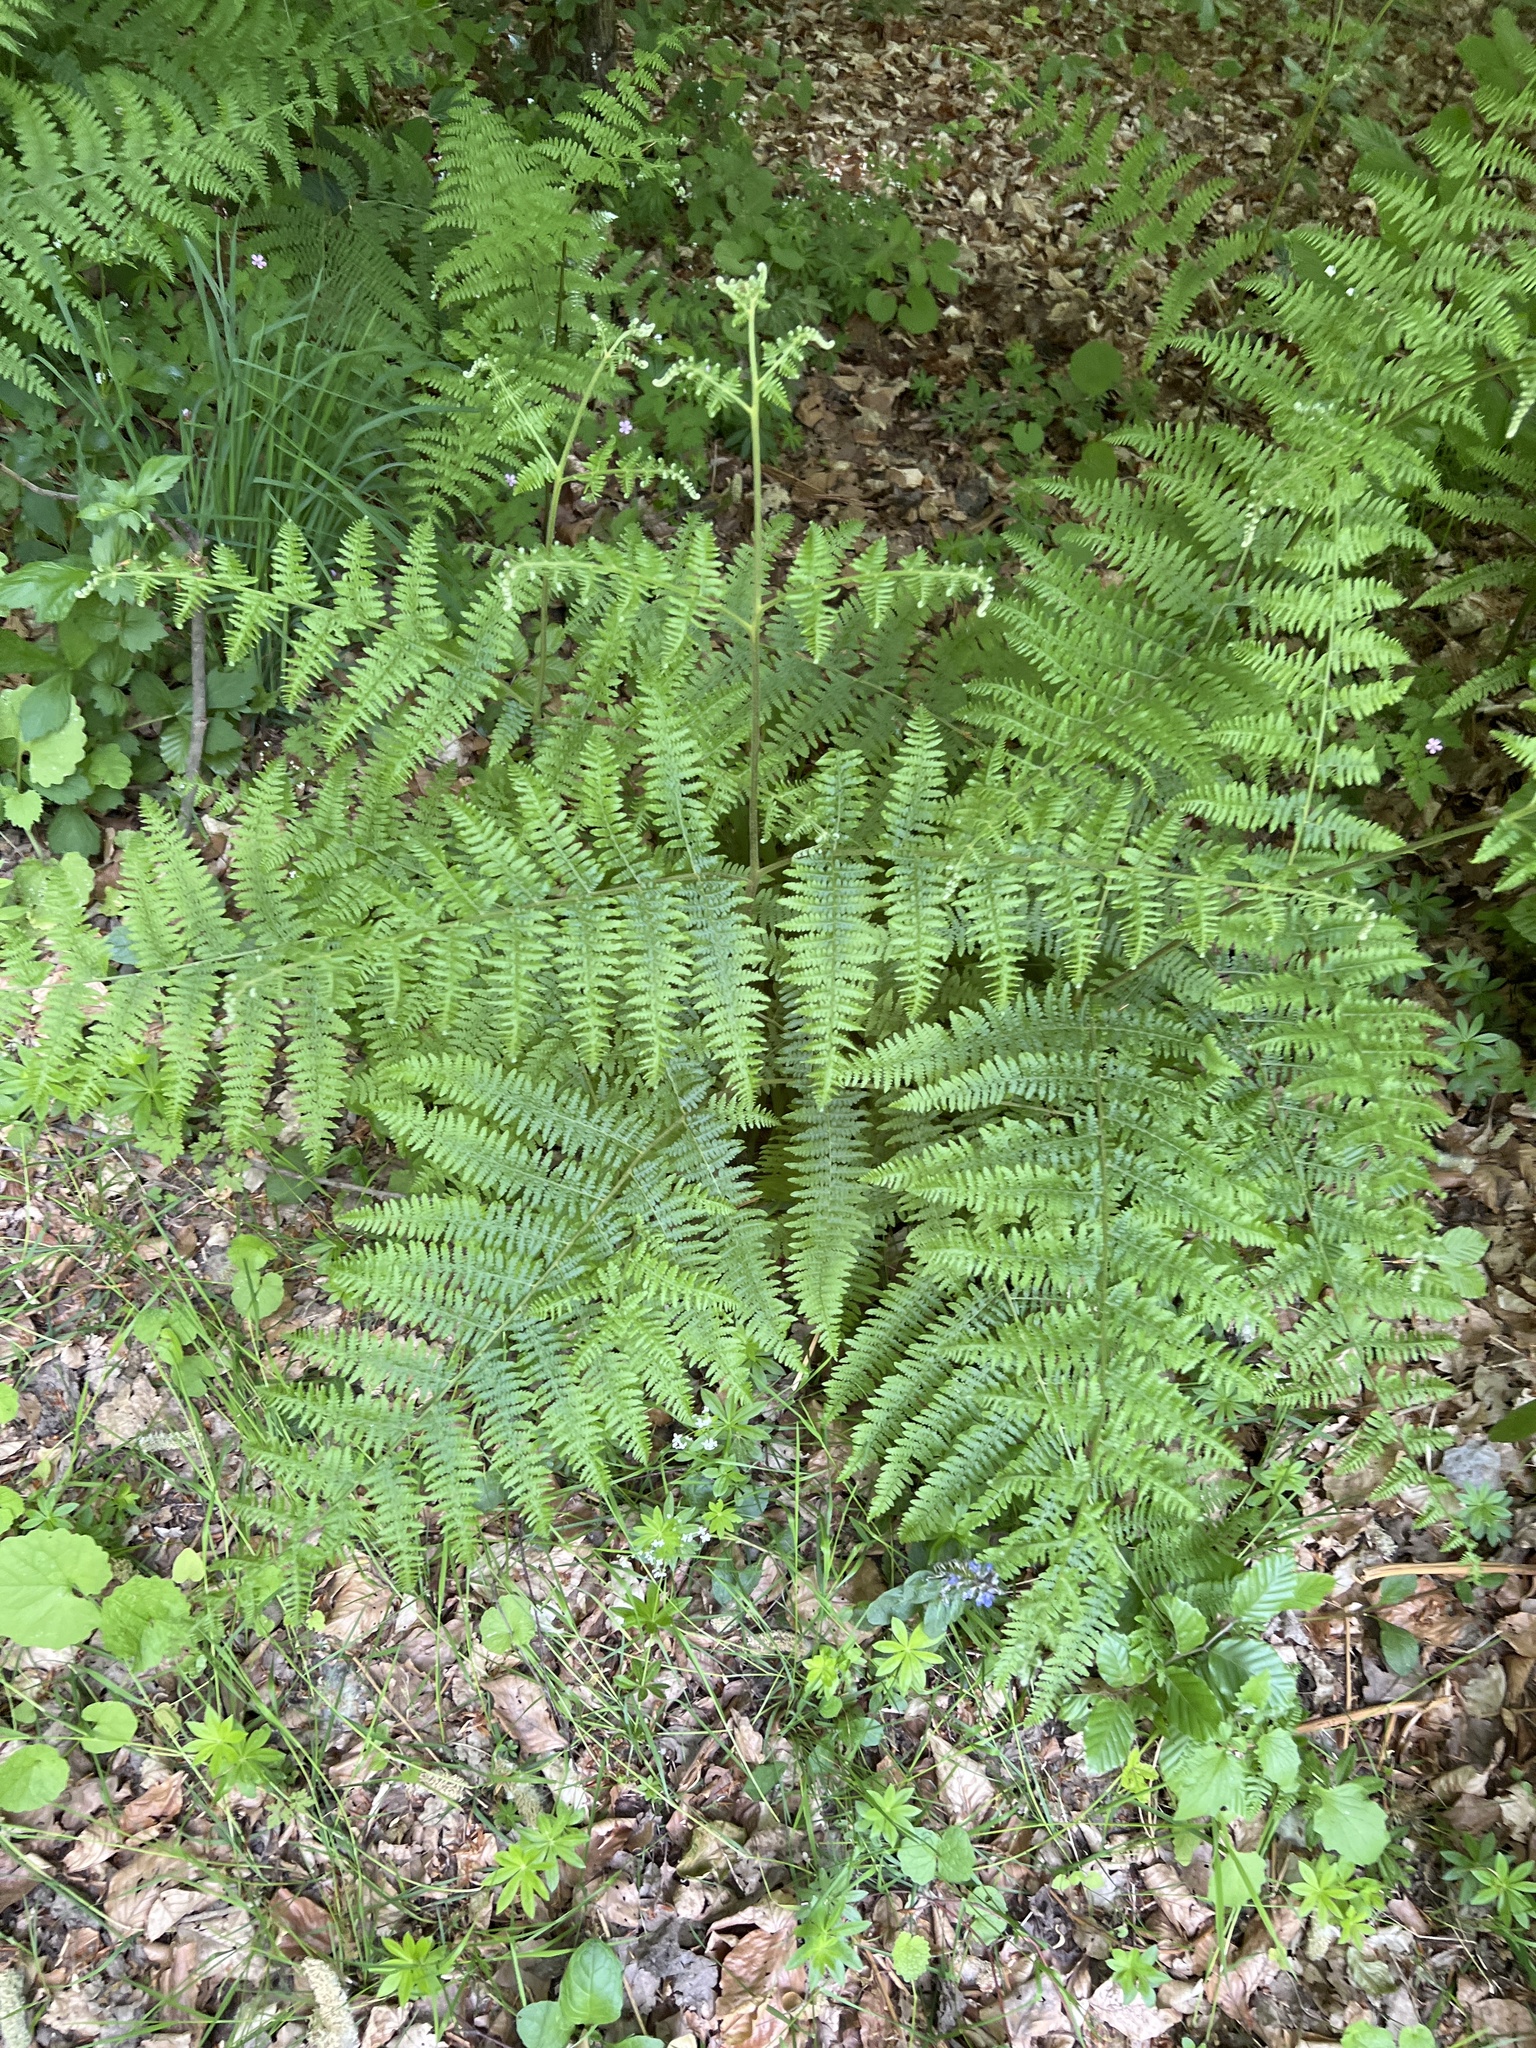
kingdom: Plantae
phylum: Tracheophyta
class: Polypodiopsida
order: Polypodiales
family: Dennstaedtiaceae
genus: Pteridium
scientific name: Pteridium aquilinum
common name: Bracken
